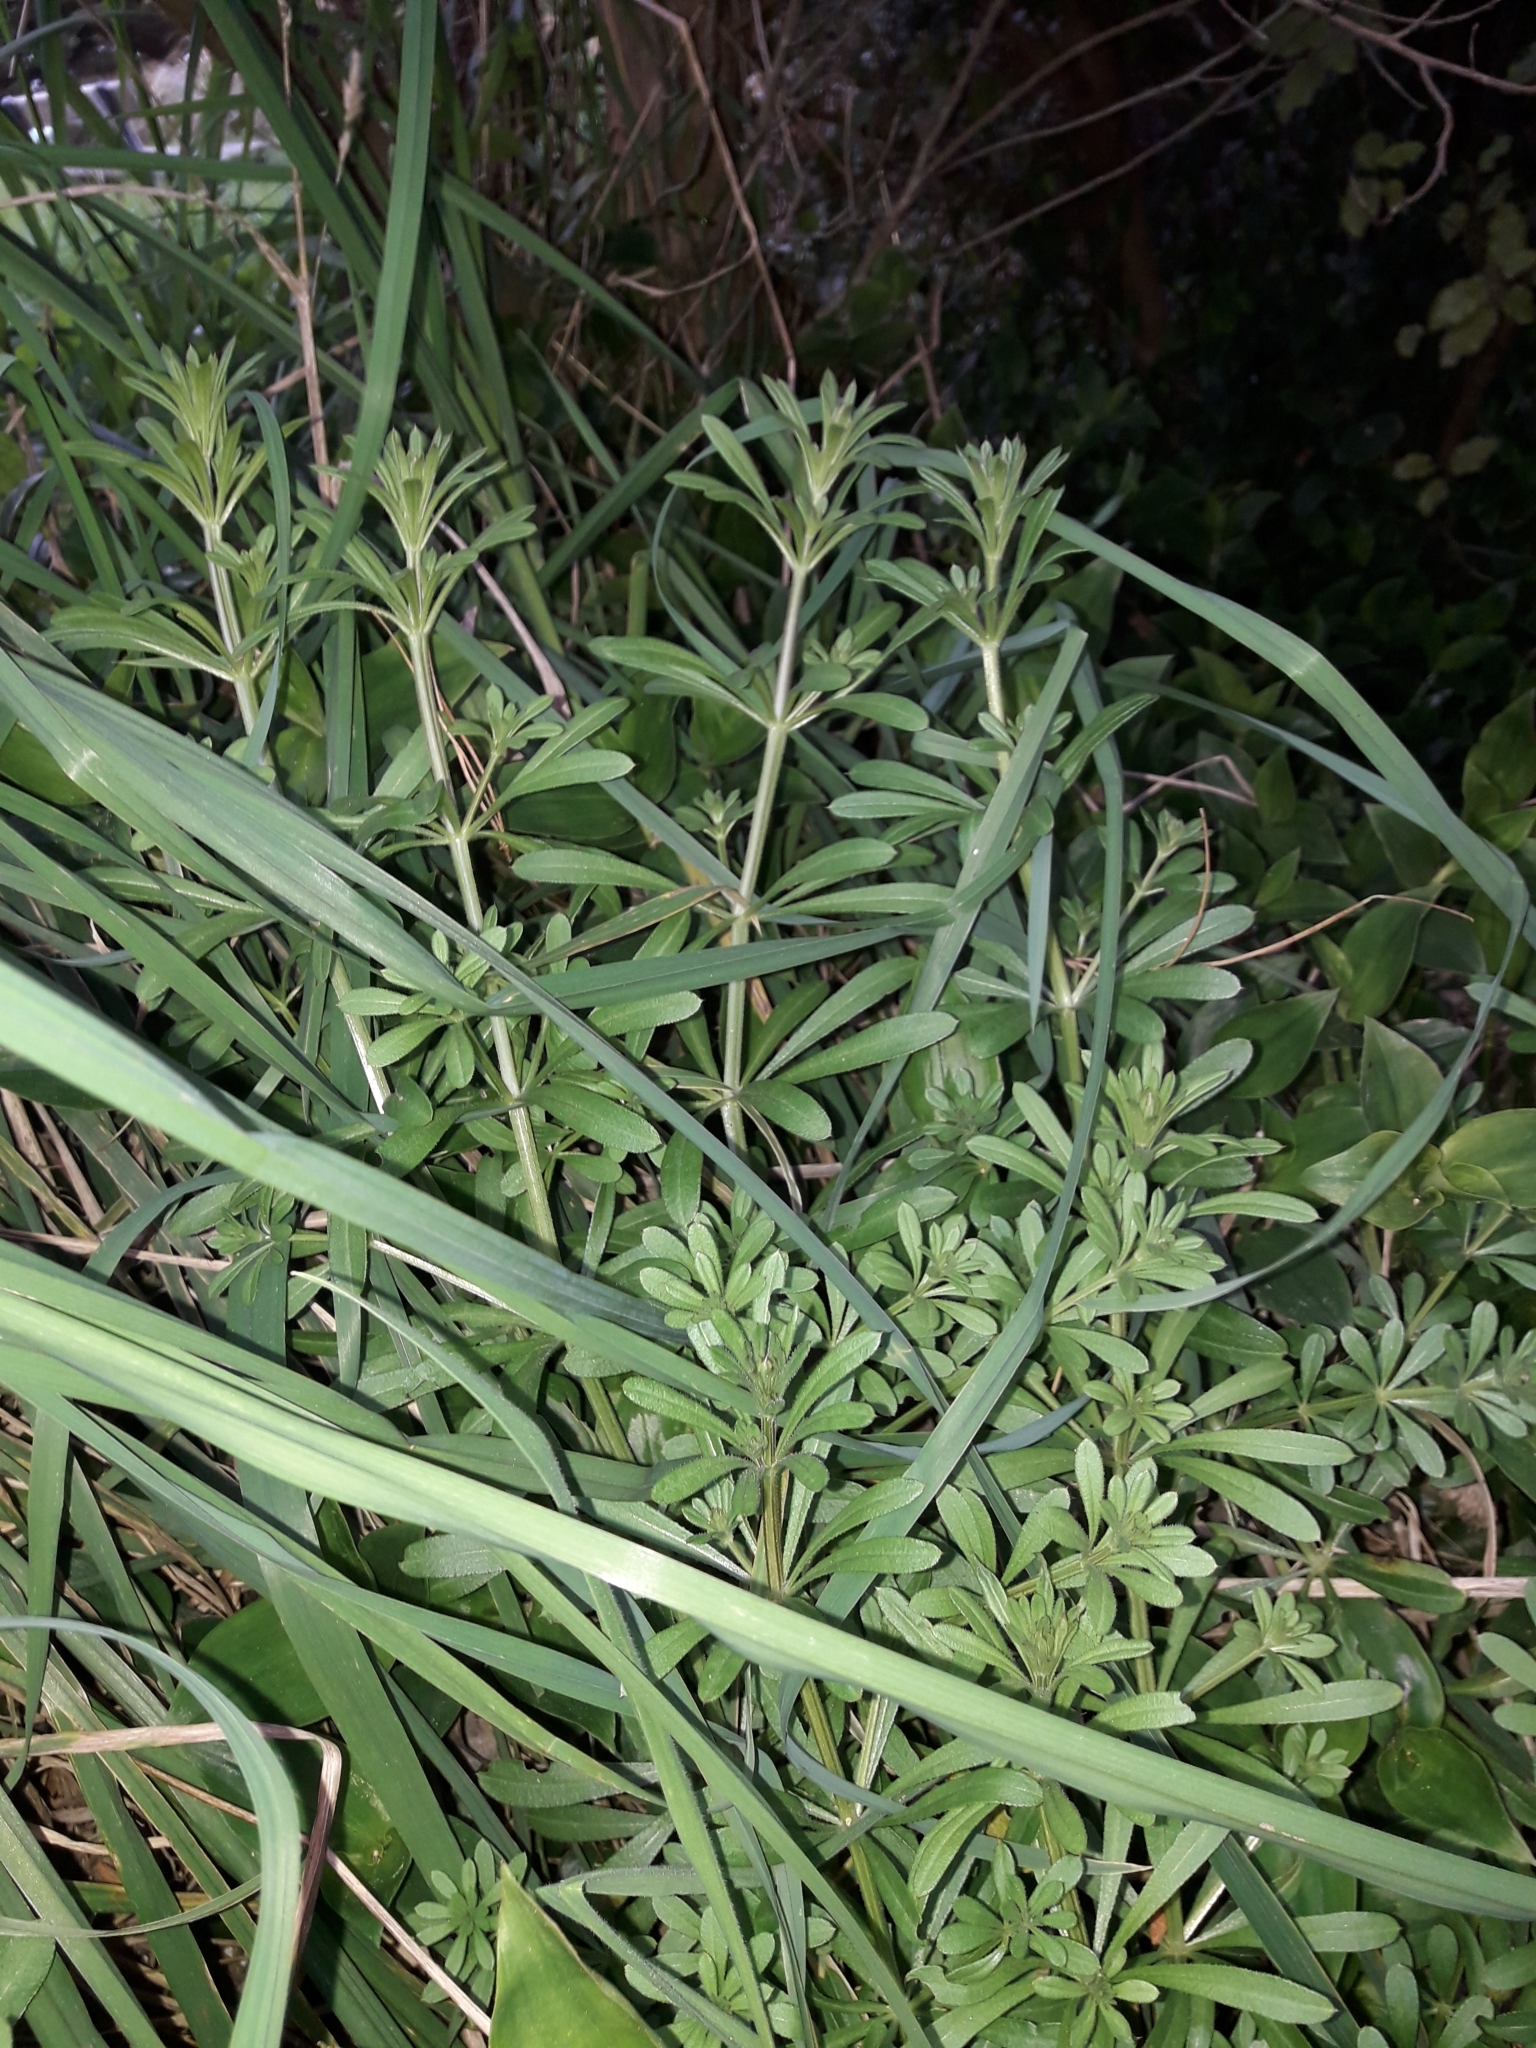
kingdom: Plantae
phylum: Tracheophyta
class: Magnoliopsida
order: Gentianales
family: Rubiaceae
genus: Galium
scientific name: Galium aparine
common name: Cleavers
